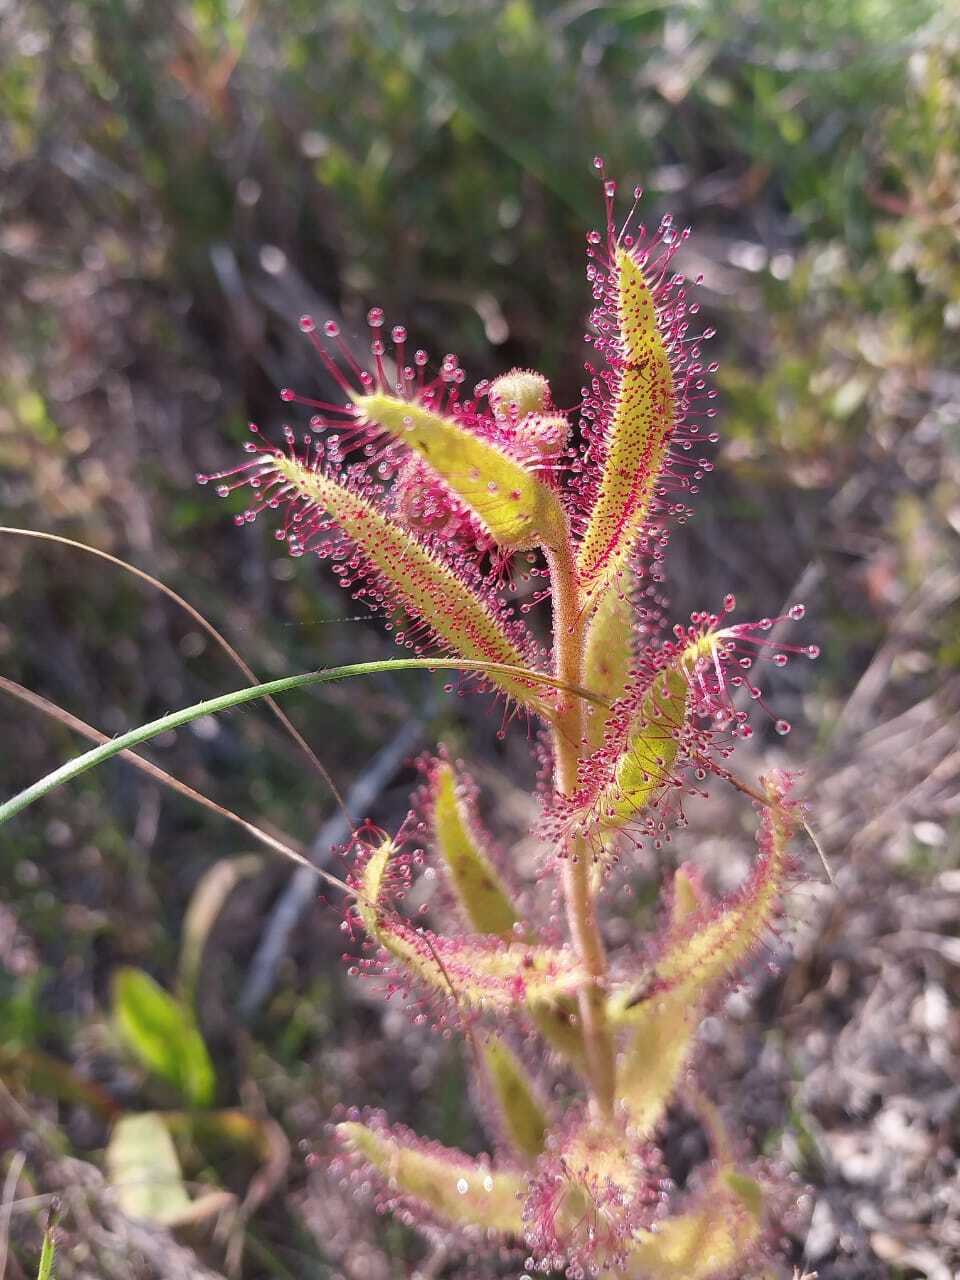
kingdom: Plantae
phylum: Tracheophyta
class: Magnoliopsida
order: Caryophyllales
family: Droseraceae
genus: Drosera
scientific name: Drosera cistiflora
